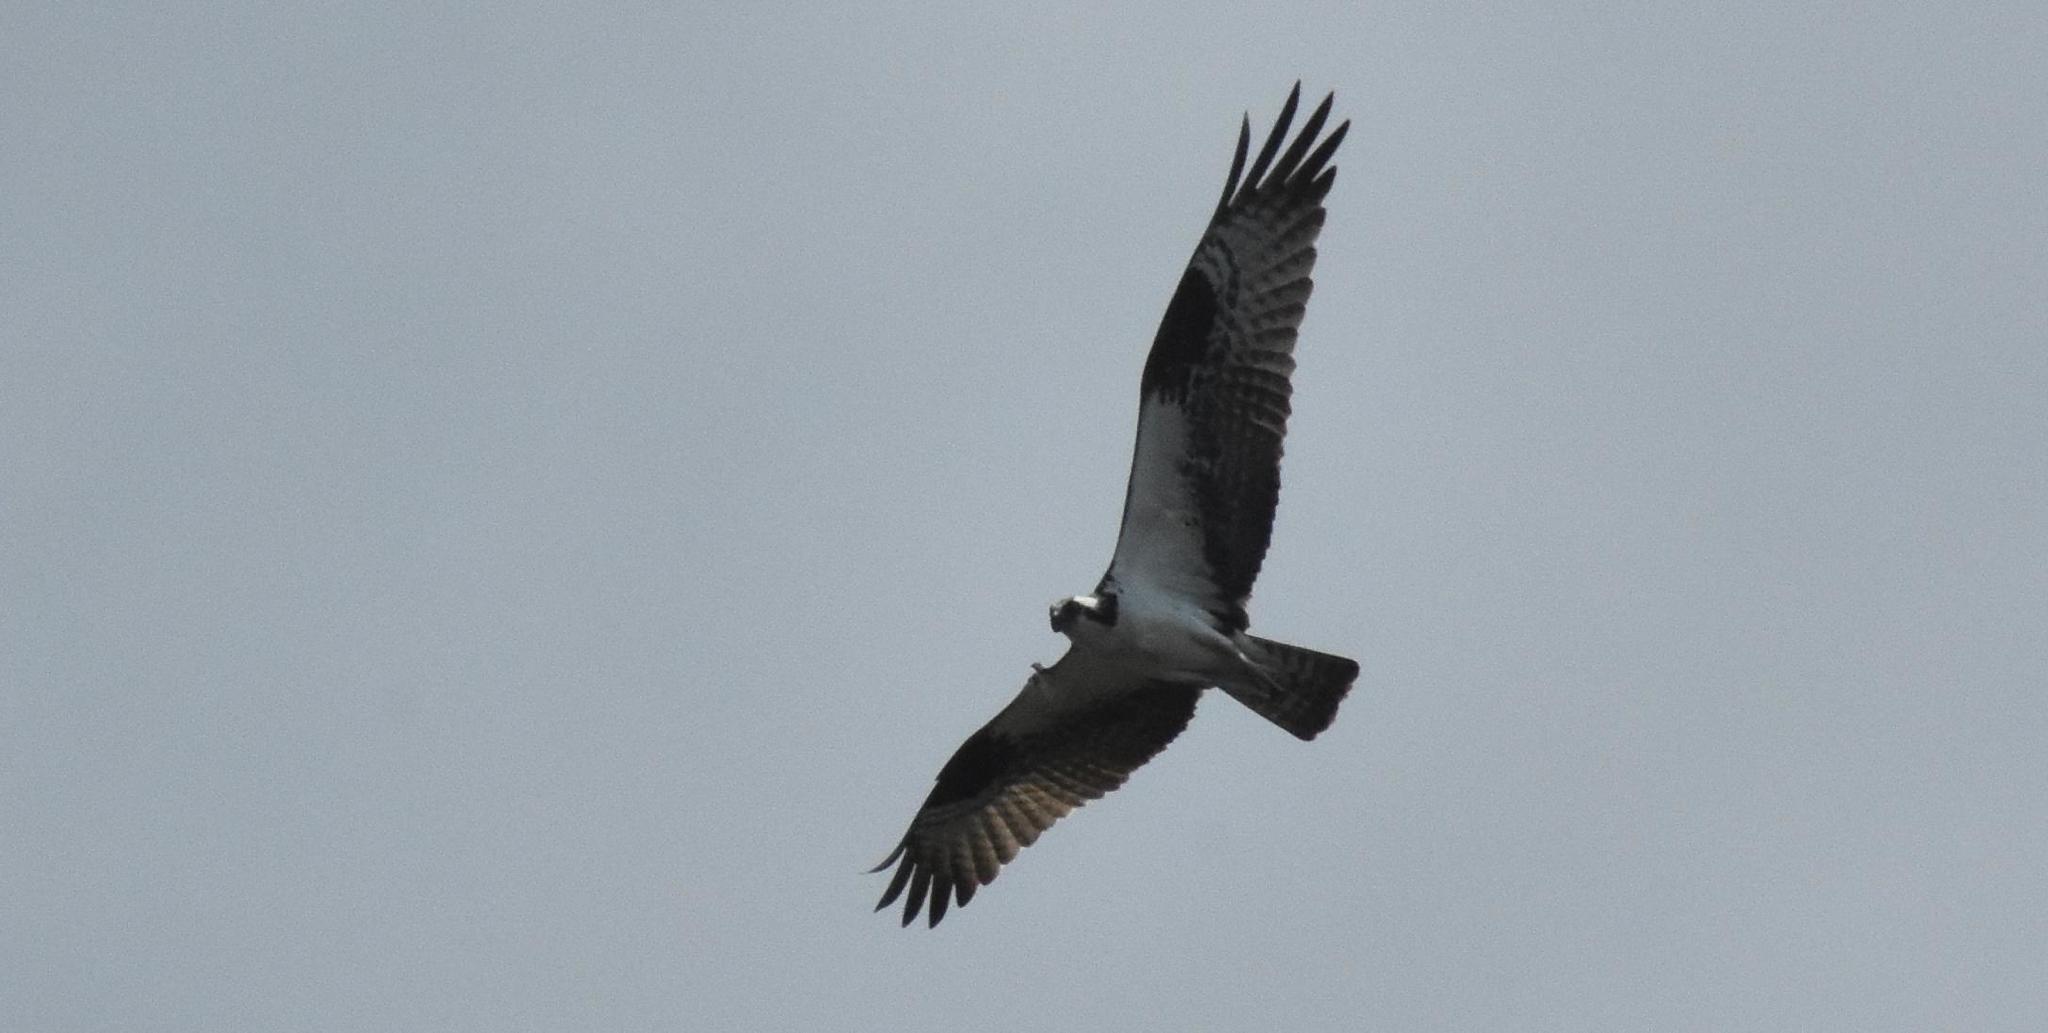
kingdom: Animalia
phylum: Chordata
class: Aves
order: Accipitriformes
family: Pandionidae
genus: Pandion
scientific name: Pandion haliaetus
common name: Osprey
